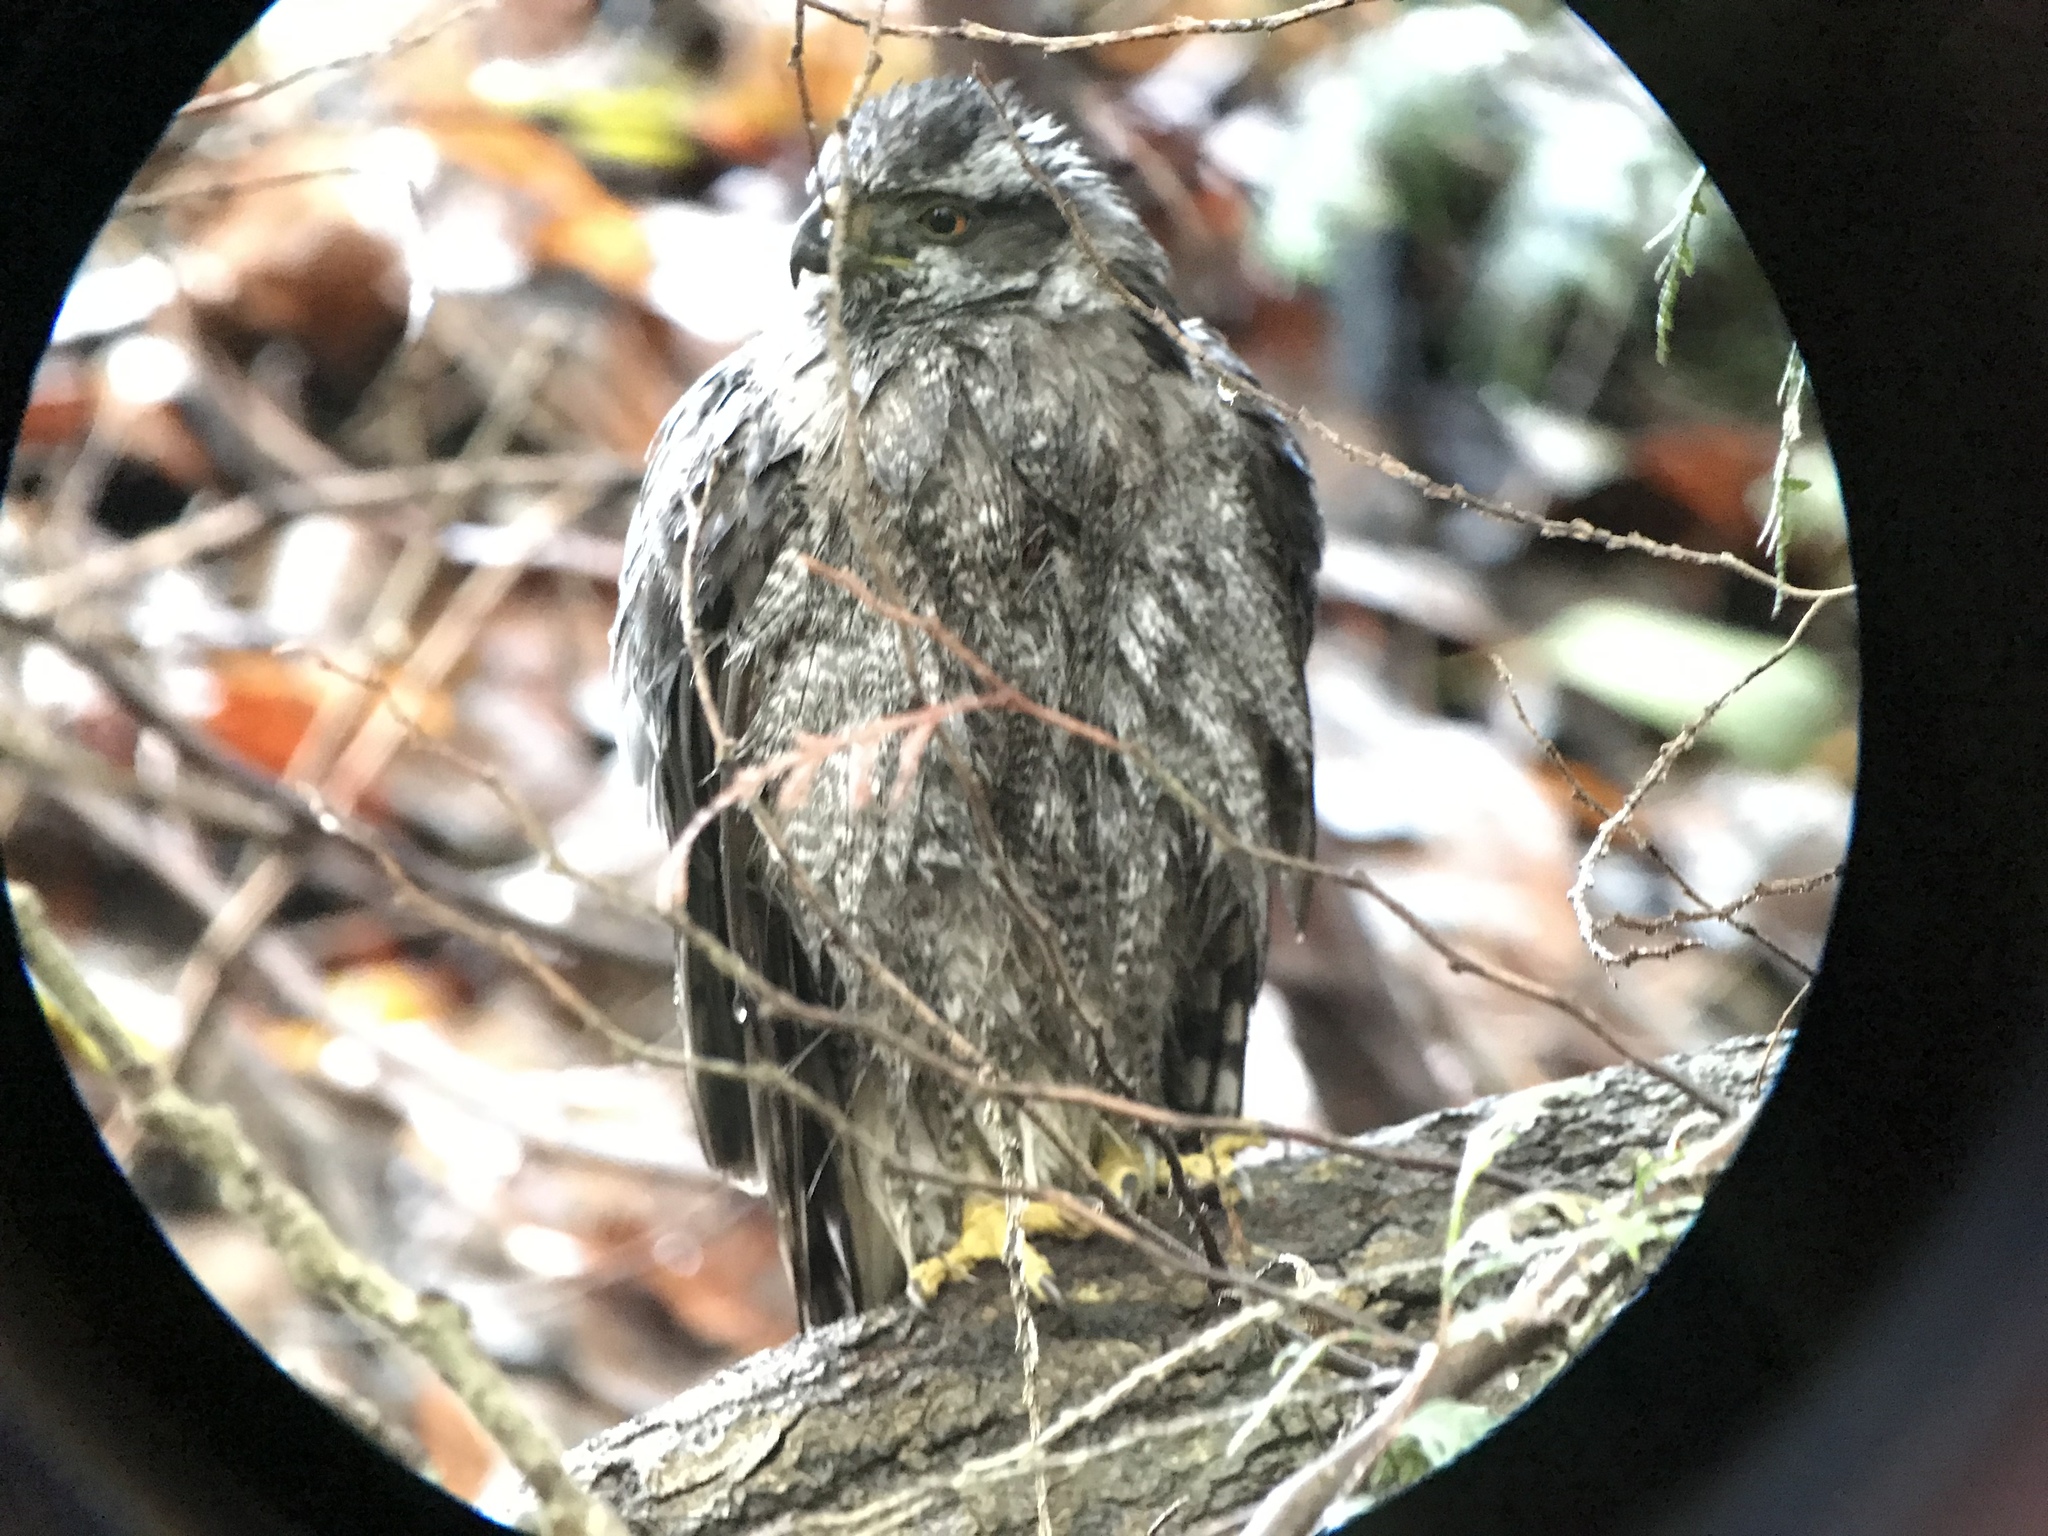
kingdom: Animalia
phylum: Chordata
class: Aves
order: Accipitriformes
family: Accipitridae
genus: Accipiter
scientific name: Accipiter gentilis
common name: Northern goshawk
